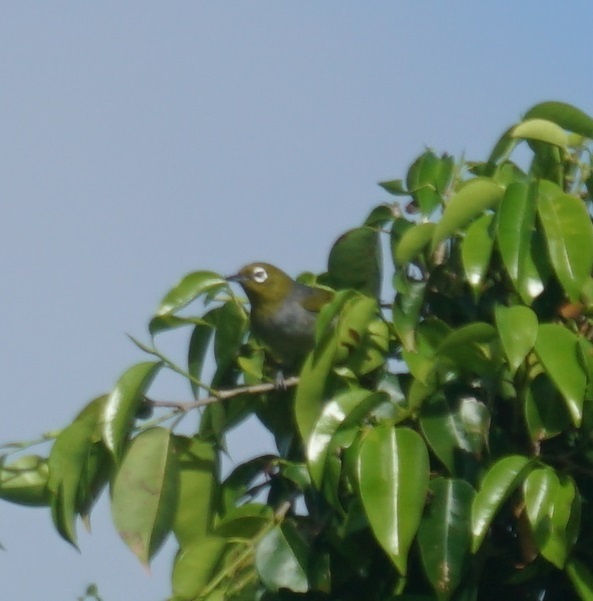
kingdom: Animalia
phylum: Chordata
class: Aves
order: Passeriformes
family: Zosteropidae
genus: Zosterops
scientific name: Zosterops lateralis
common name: Silvereye
